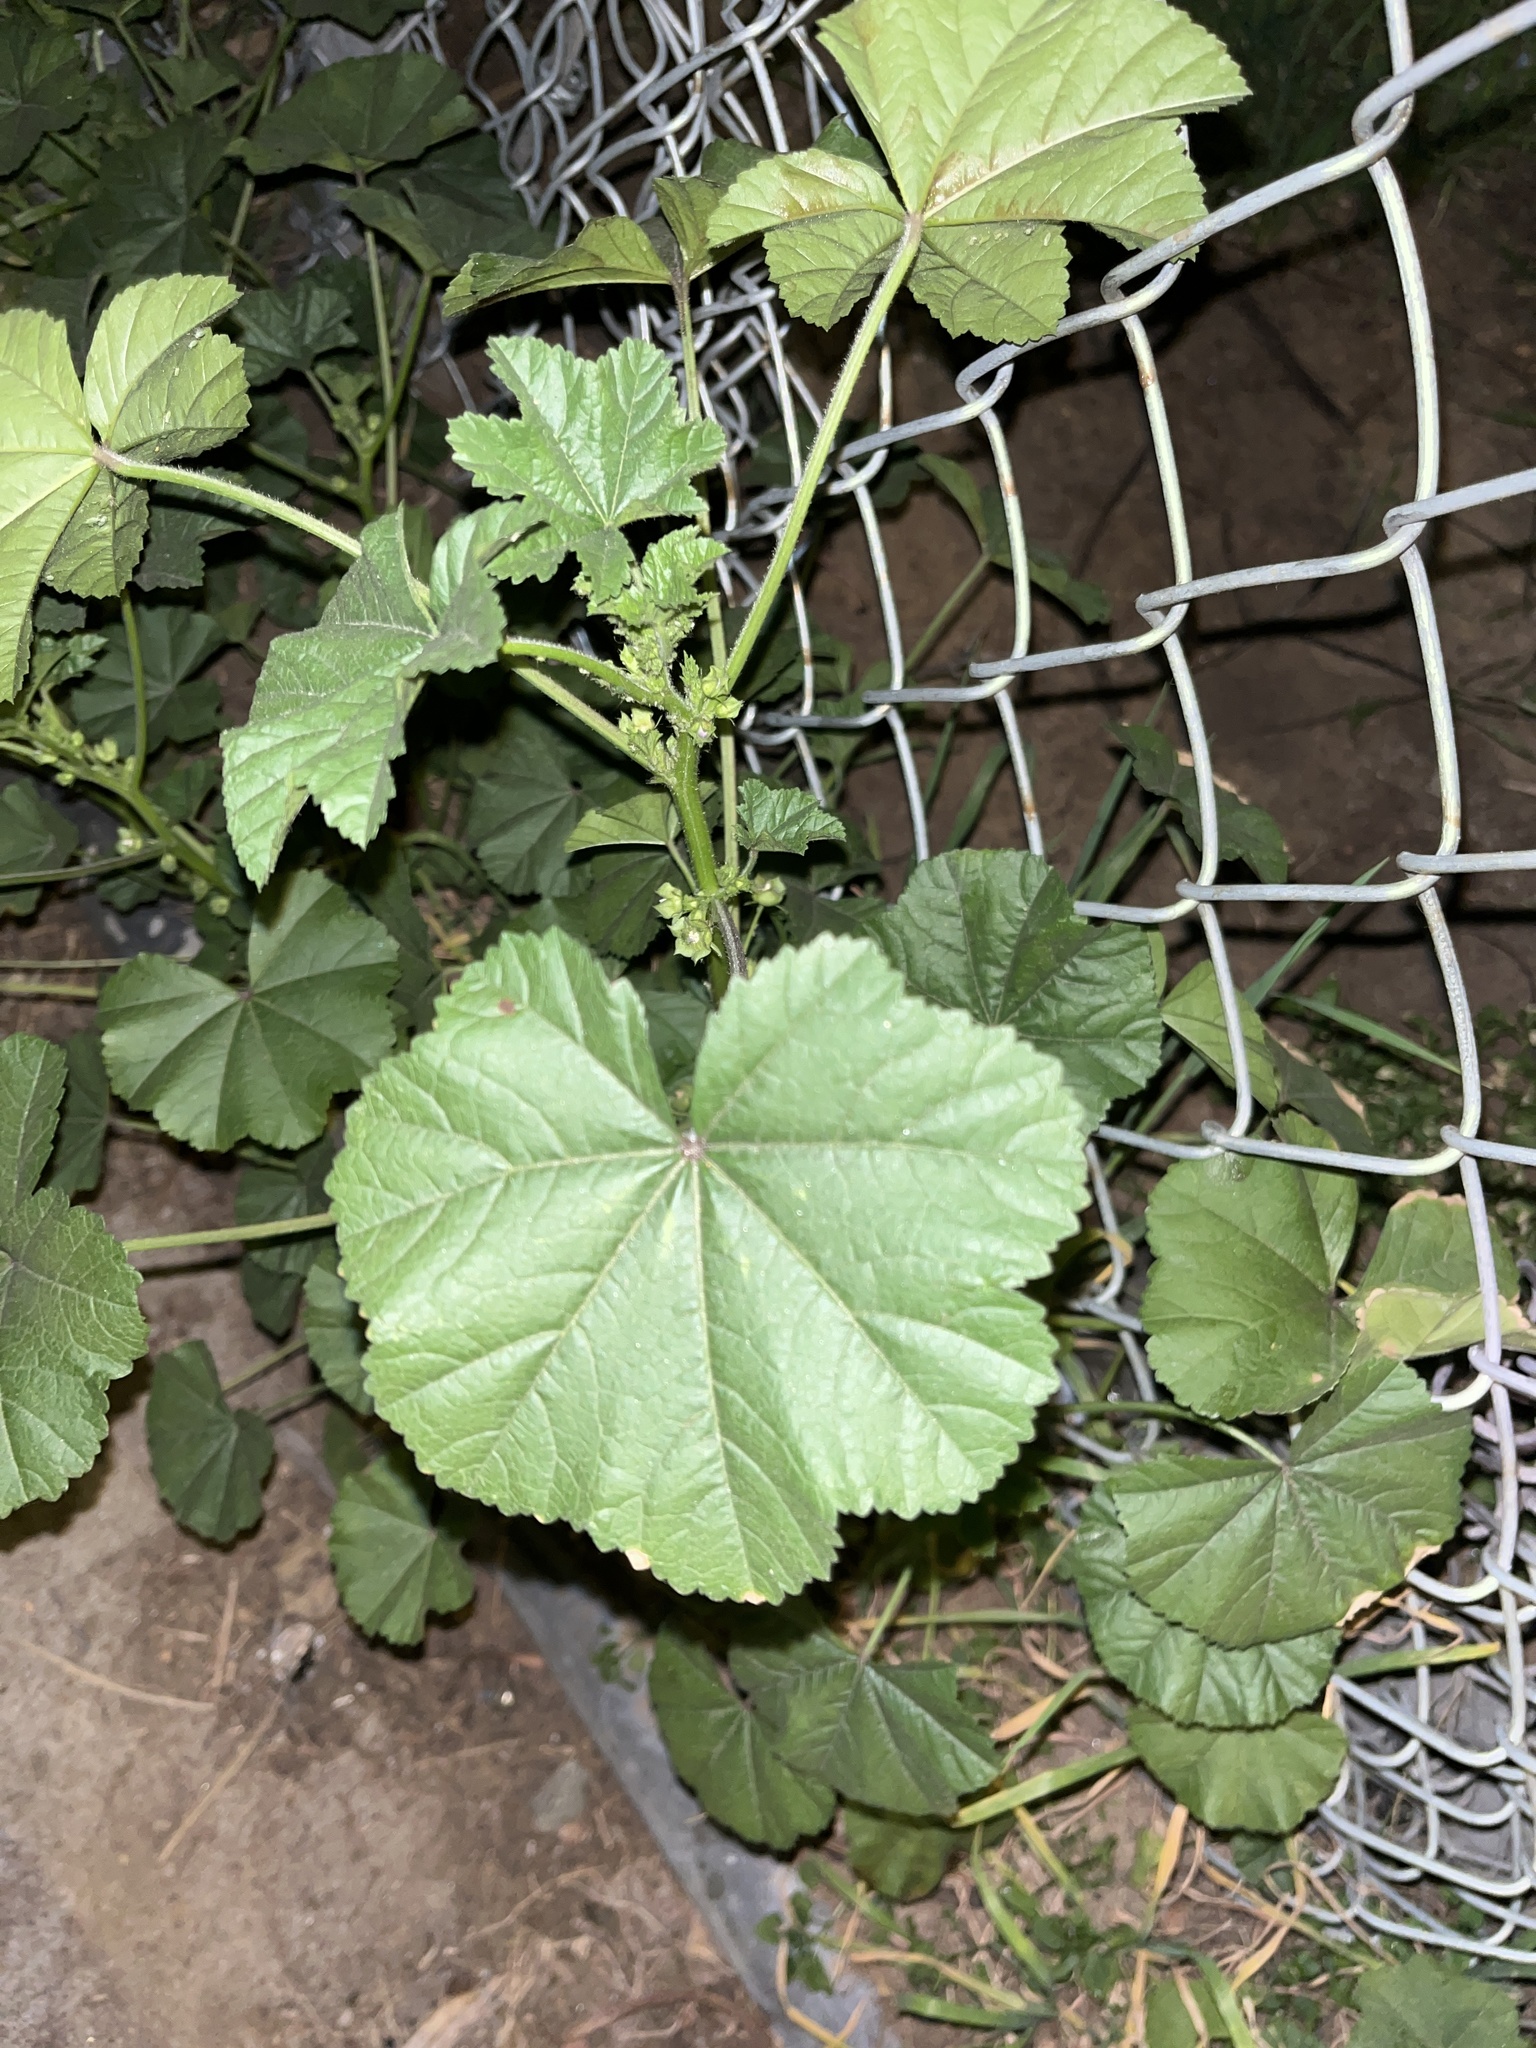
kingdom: Plantae
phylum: Tracheophyta
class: Magnoliopsida
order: Malvales
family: Malvaceae
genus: Malva
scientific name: Malva parviflora
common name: Least mallow
